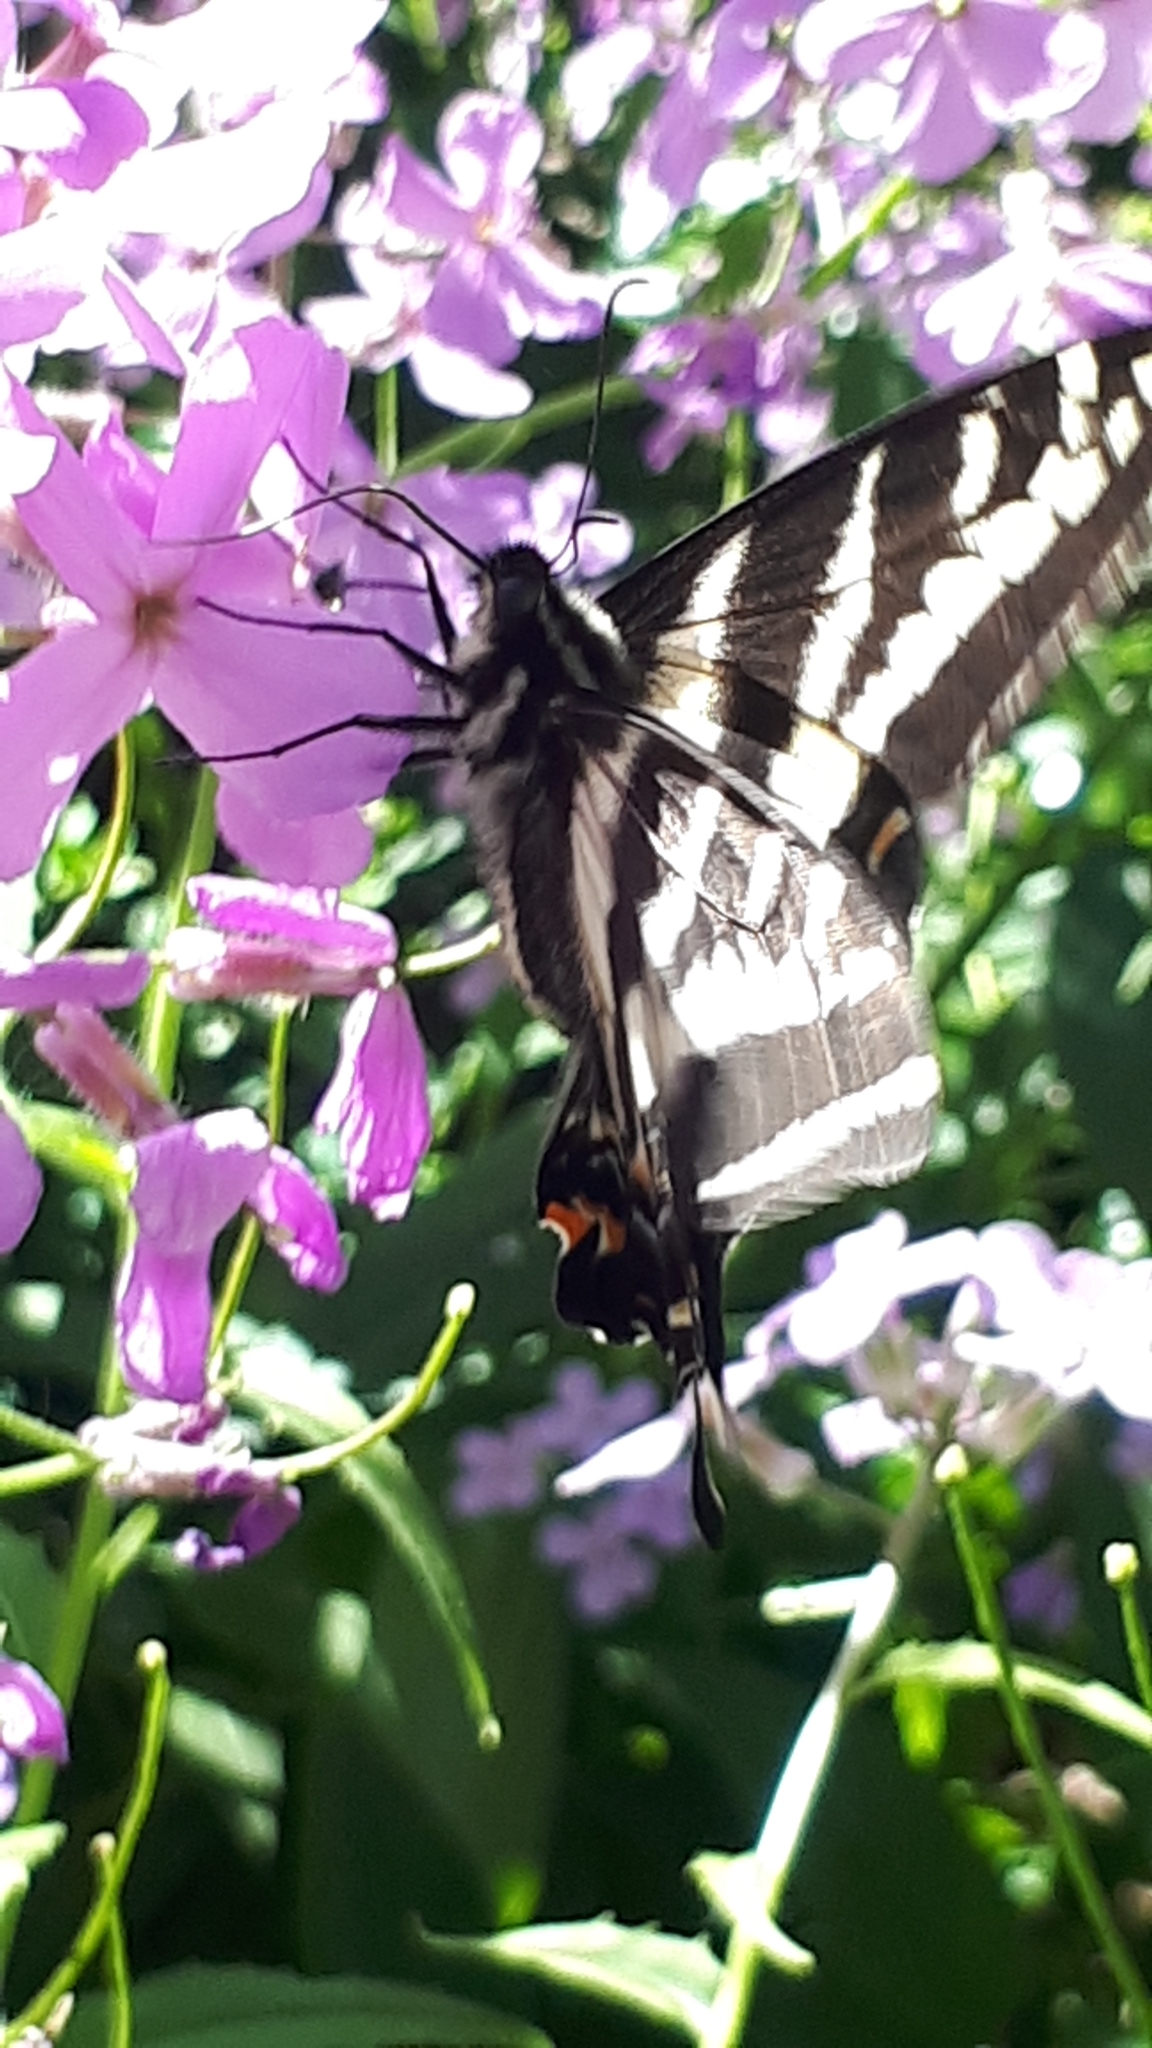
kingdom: Animalia
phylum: Arthropoda
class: Insecta
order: Lepidoptera
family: Papilionidae
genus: Papilio
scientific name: Papilio eurymedon
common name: Pale tiger swallowtail
